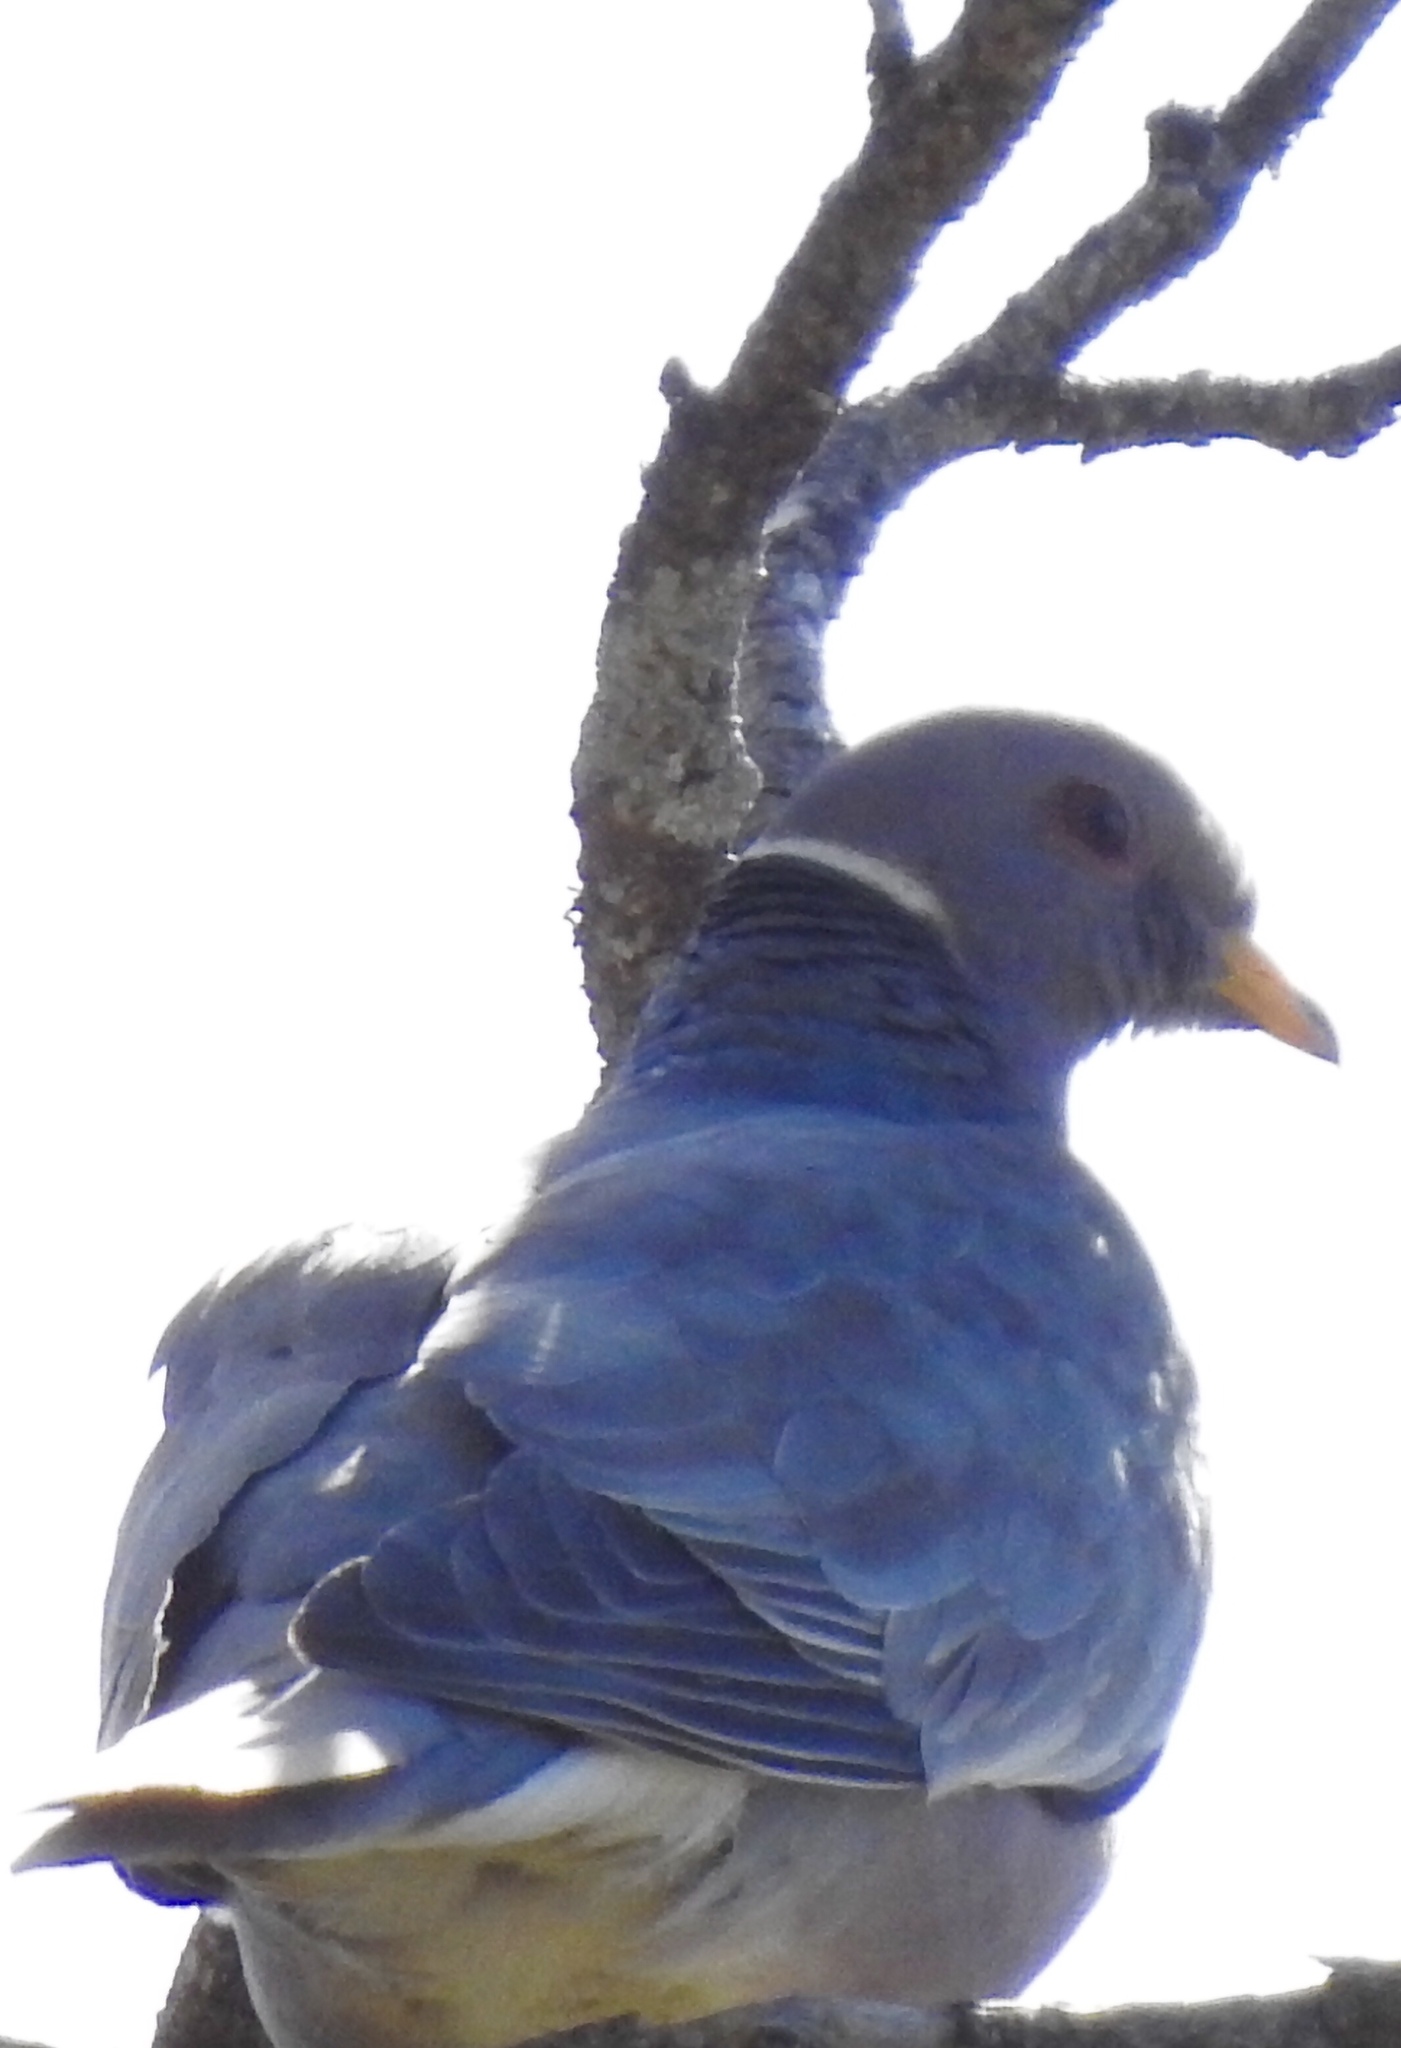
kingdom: Animalia
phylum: Chordata
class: Aves
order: Columbiformes
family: Columbidae
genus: Patagioenas
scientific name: Patagioenas fasciata
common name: Band-tailed pigeon
